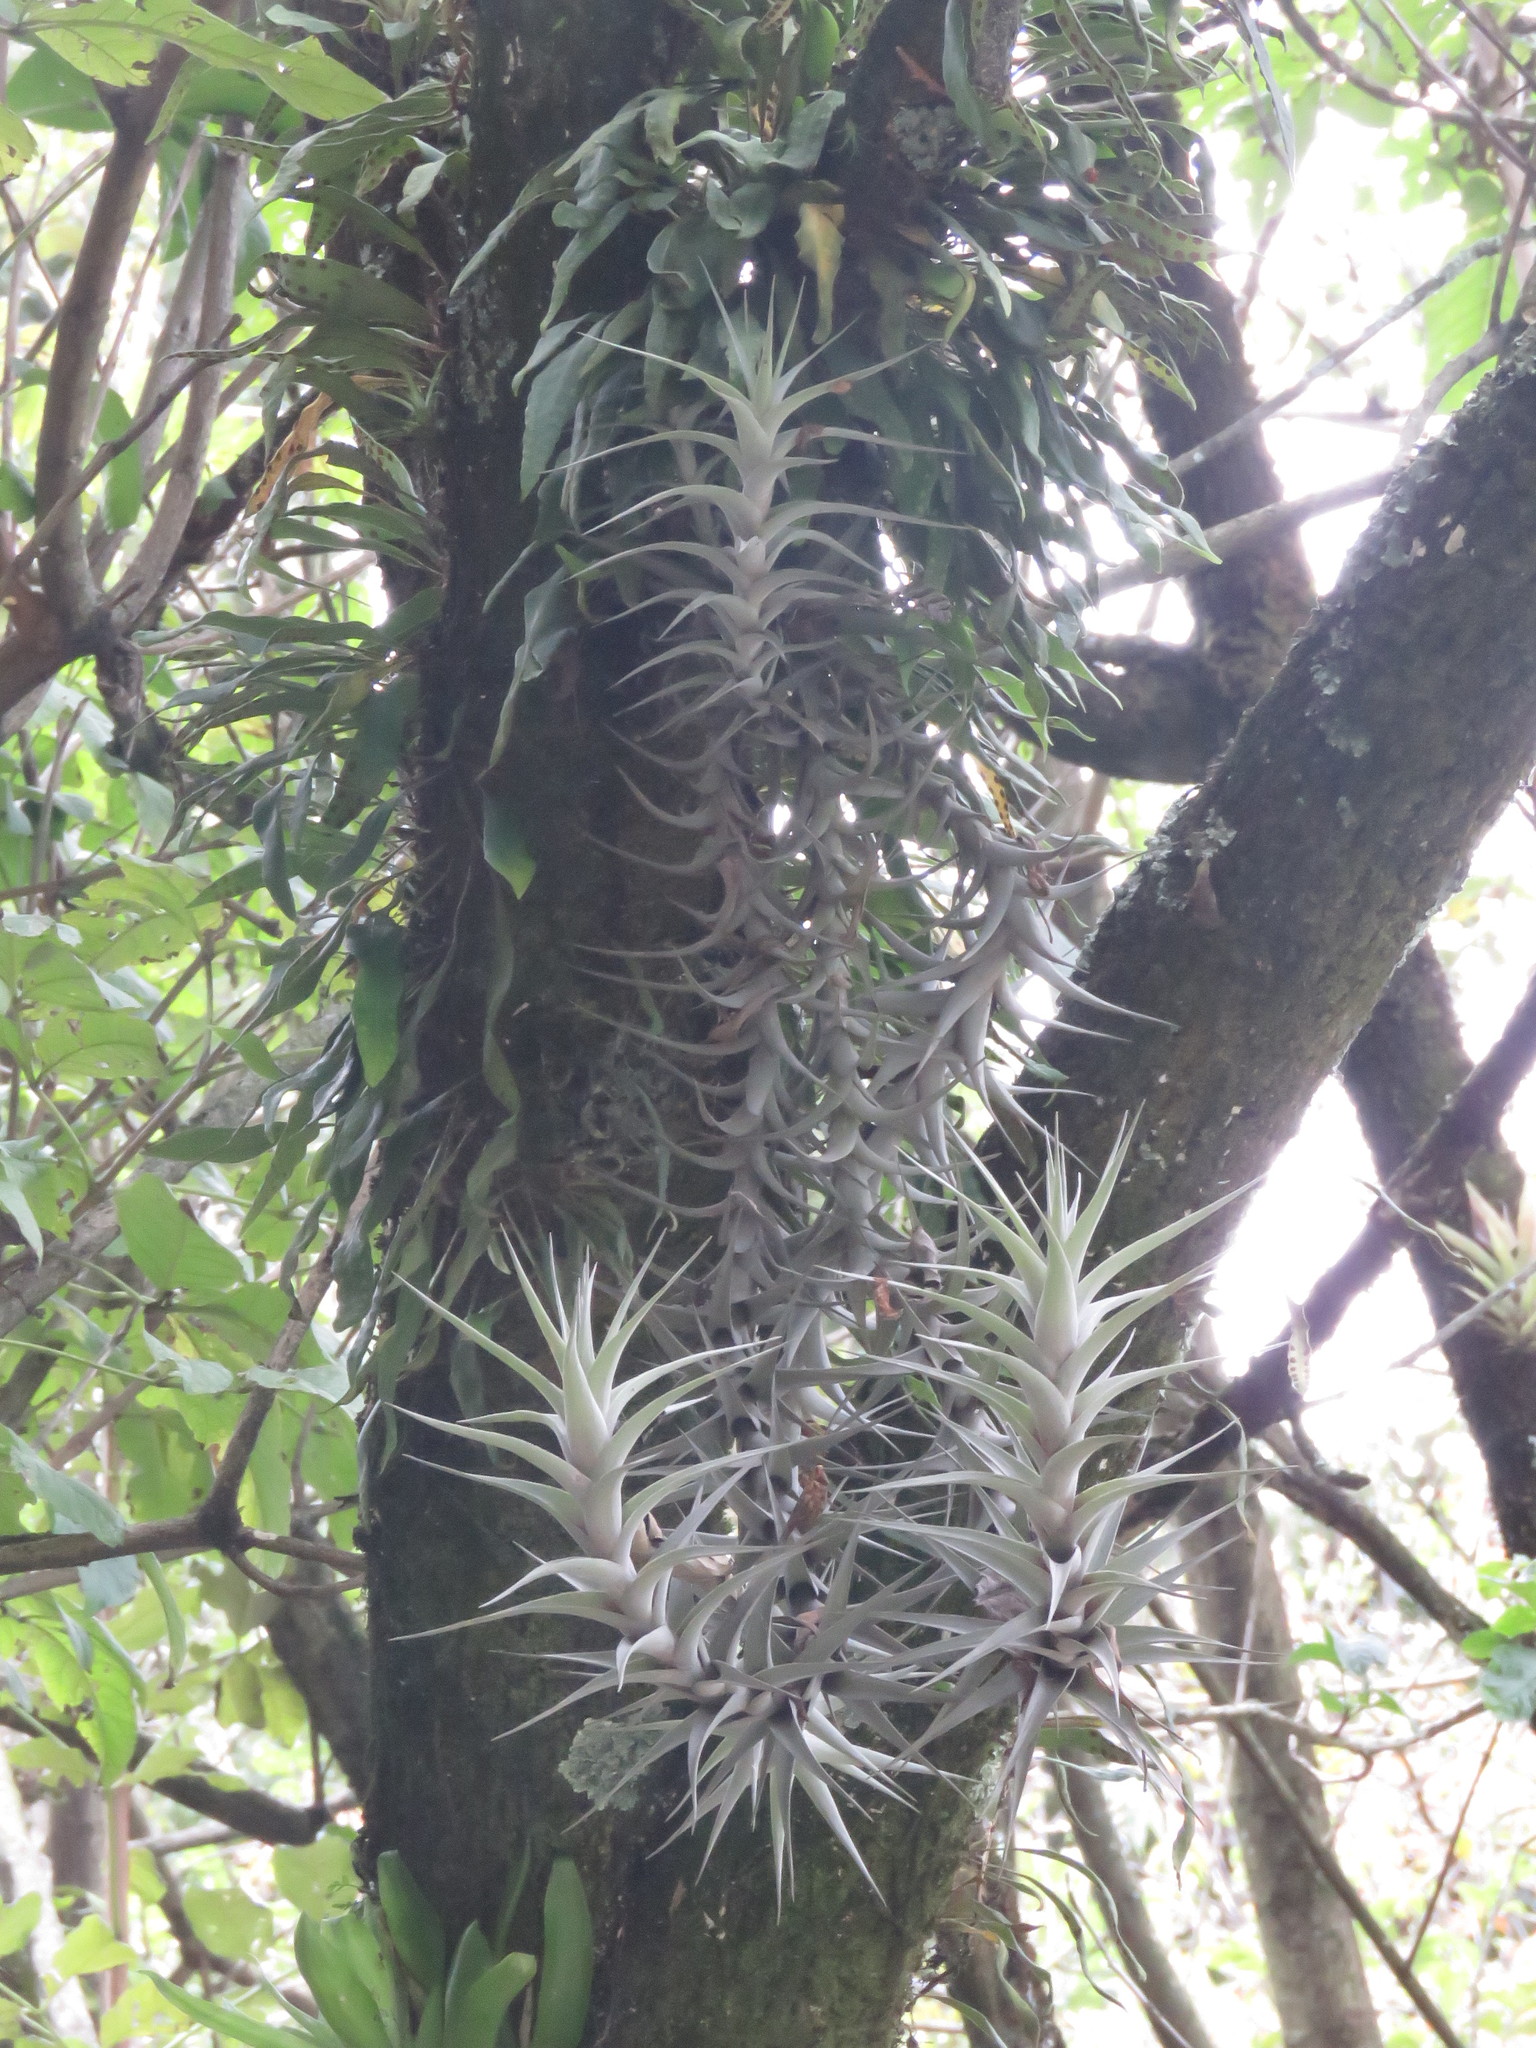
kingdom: Plantae
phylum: Tracheophyta
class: Liliopsida
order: Poales
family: Bromeliaceae
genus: Tillandsia
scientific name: Tillandsia incarnata
